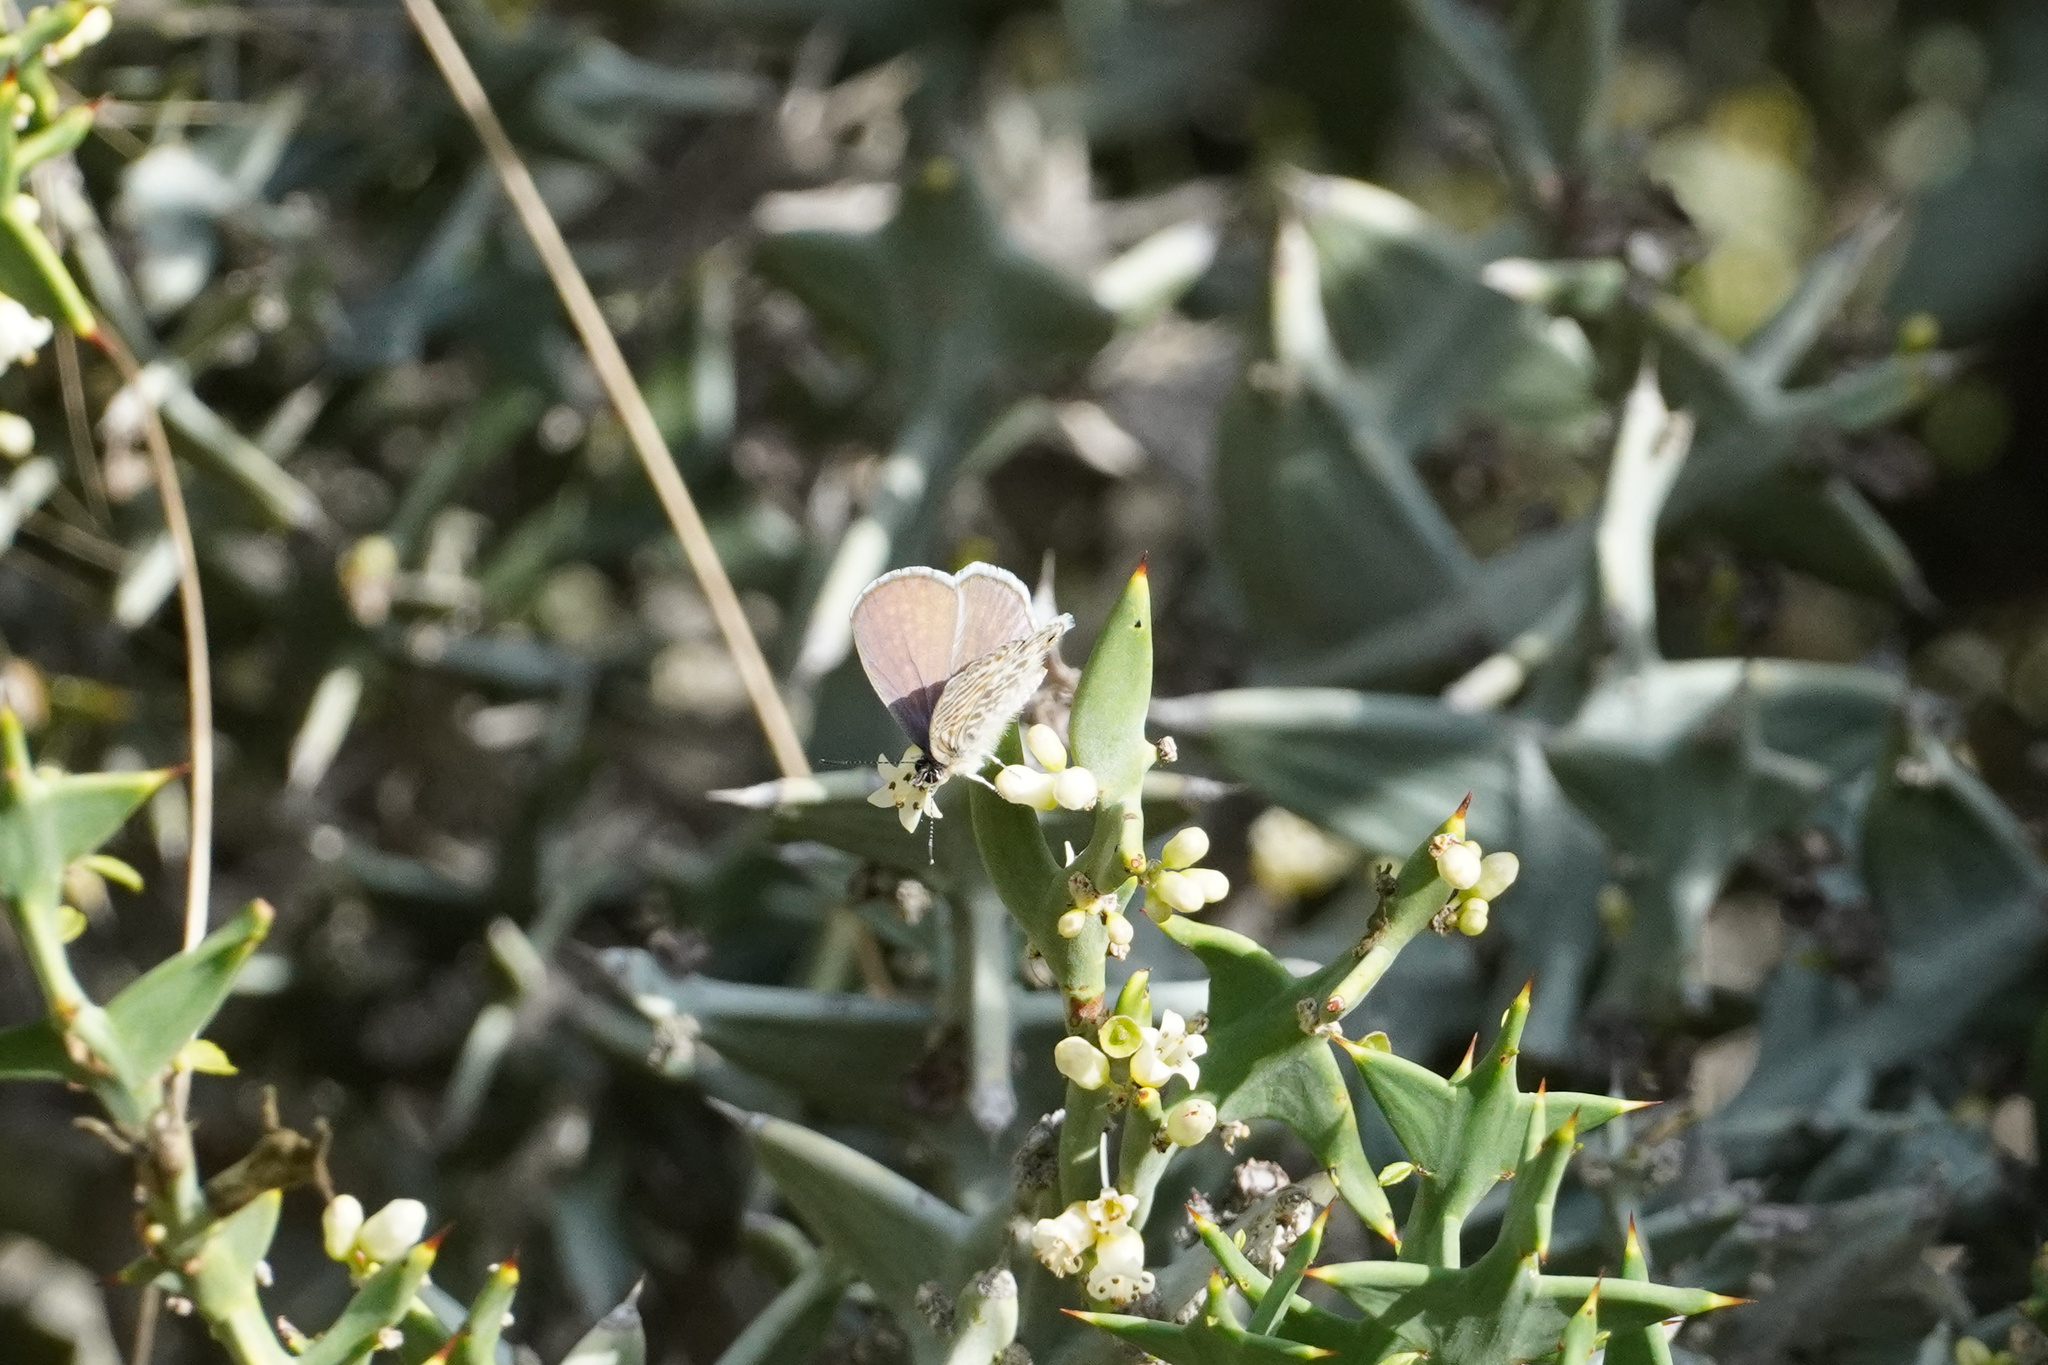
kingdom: Animalia
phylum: Arthropoda
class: Insecta
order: Lepidoptera
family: Lycaenidae
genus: Leptotes
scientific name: Leptotes marina
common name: Marine blue
